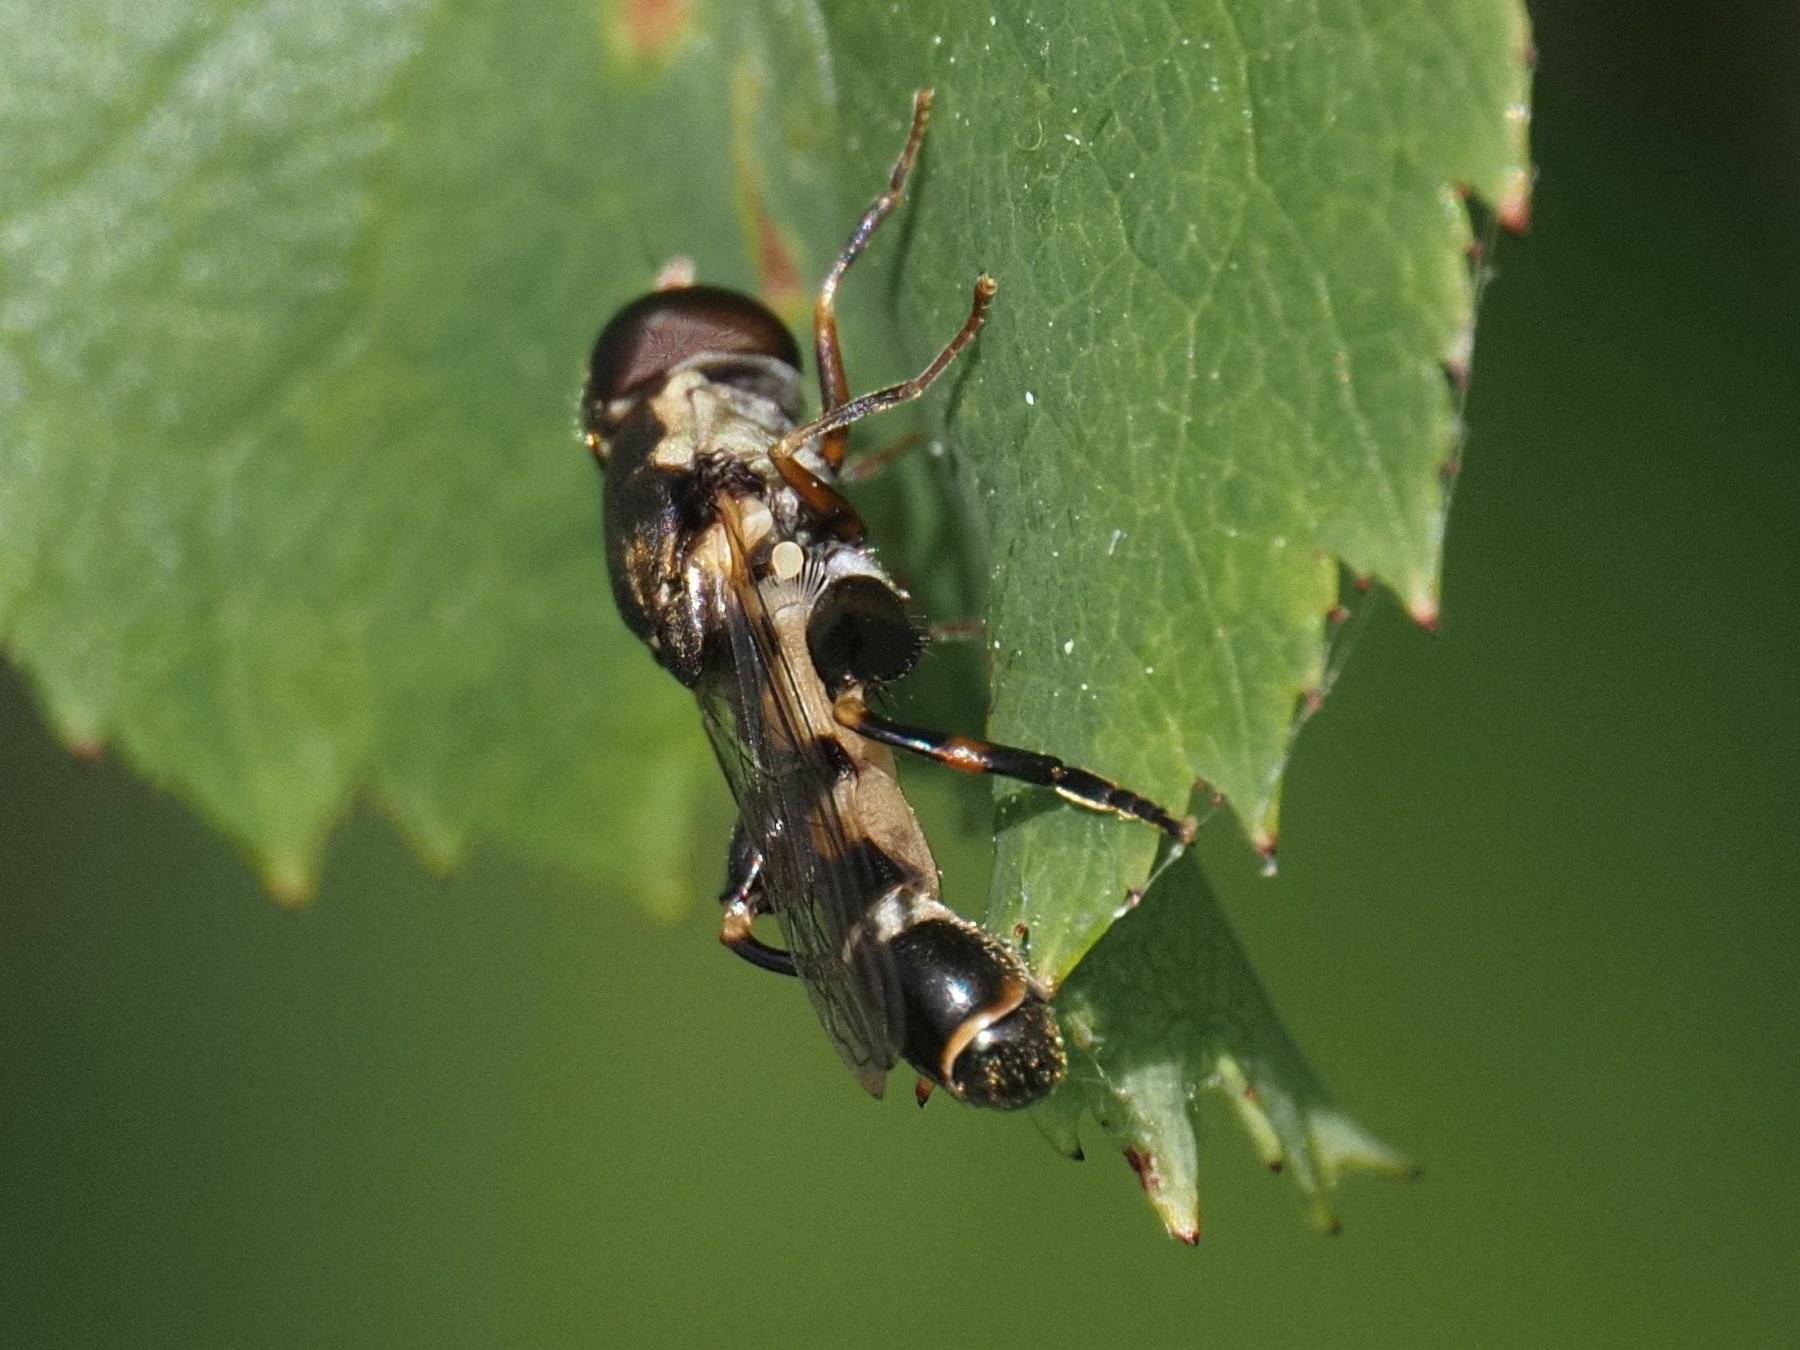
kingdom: Animalia
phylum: Arthropoda
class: Insecta
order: Diptera
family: Syrphidae
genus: Syritta
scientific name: Syritta pipiens
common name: Hover fly
